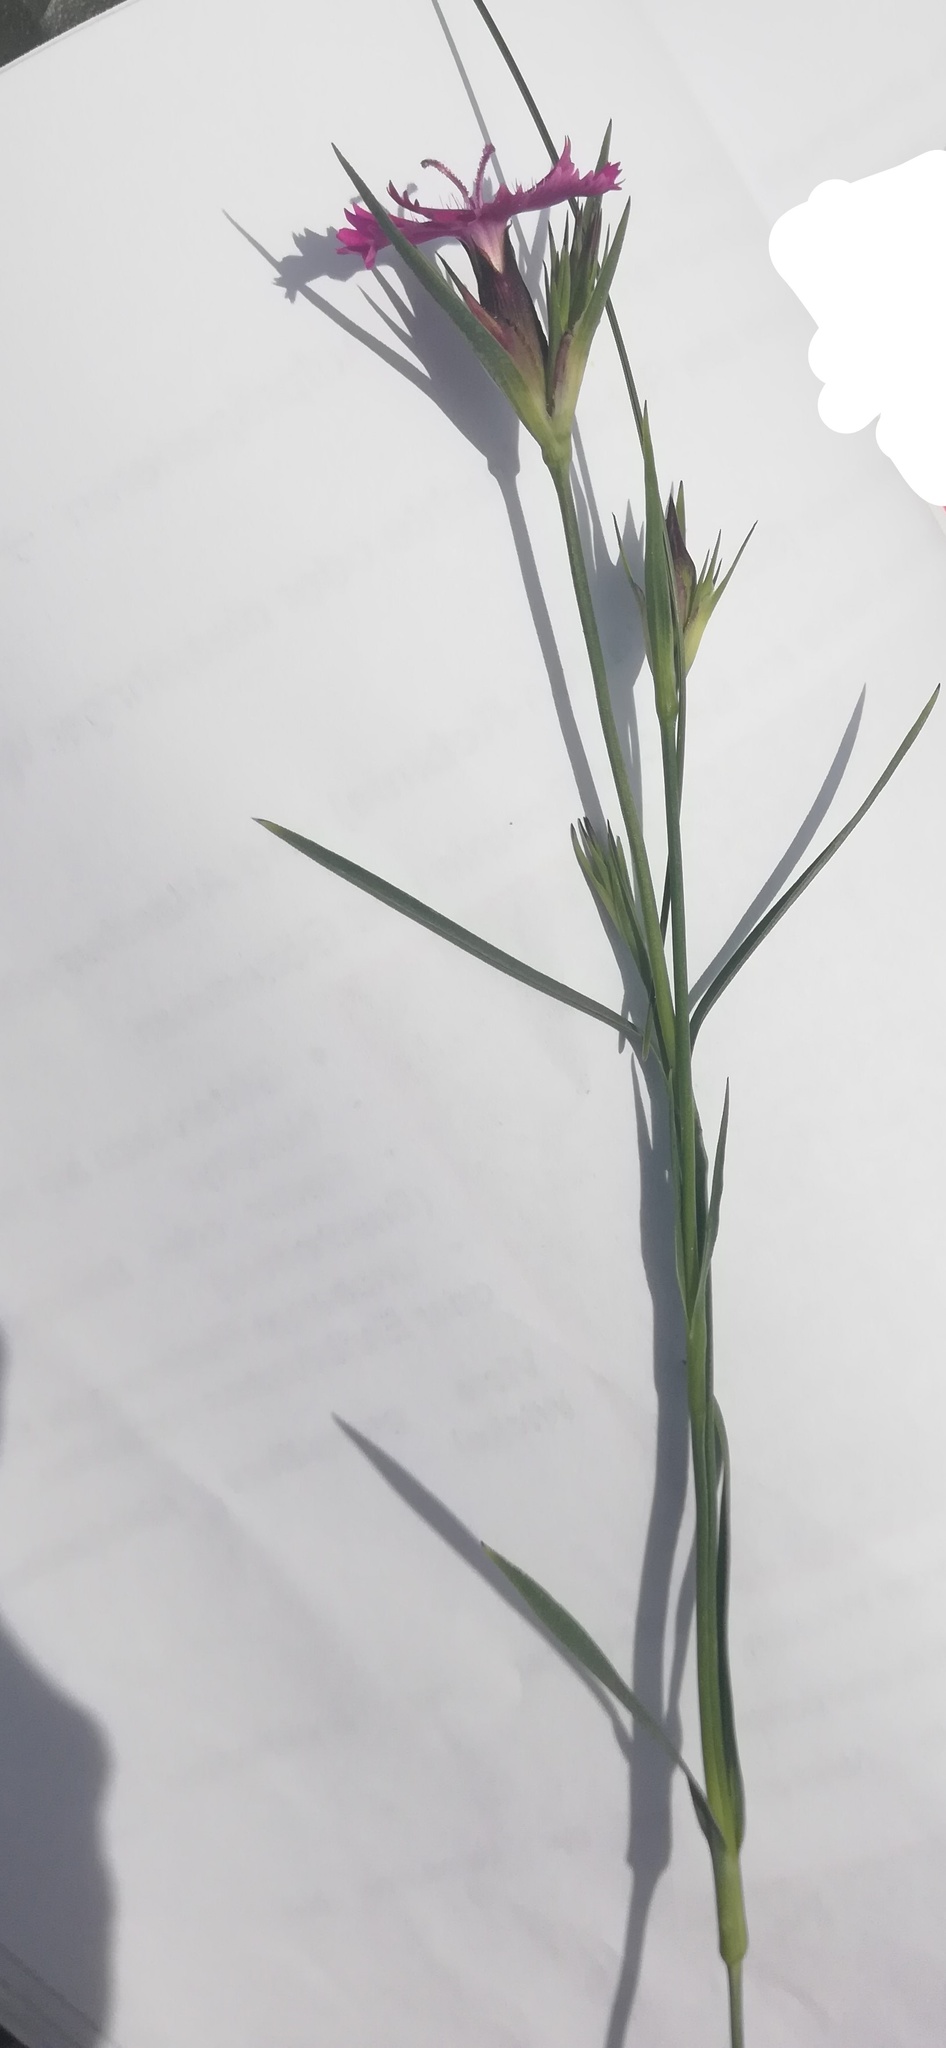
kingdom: Plantae
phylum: Tracheophyta
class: Magnoliopsida
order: Caryophyllales
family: Caryophyllaceae
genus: Dianthus
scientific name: Dianthus carthusianorum
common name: Carthusian pink
